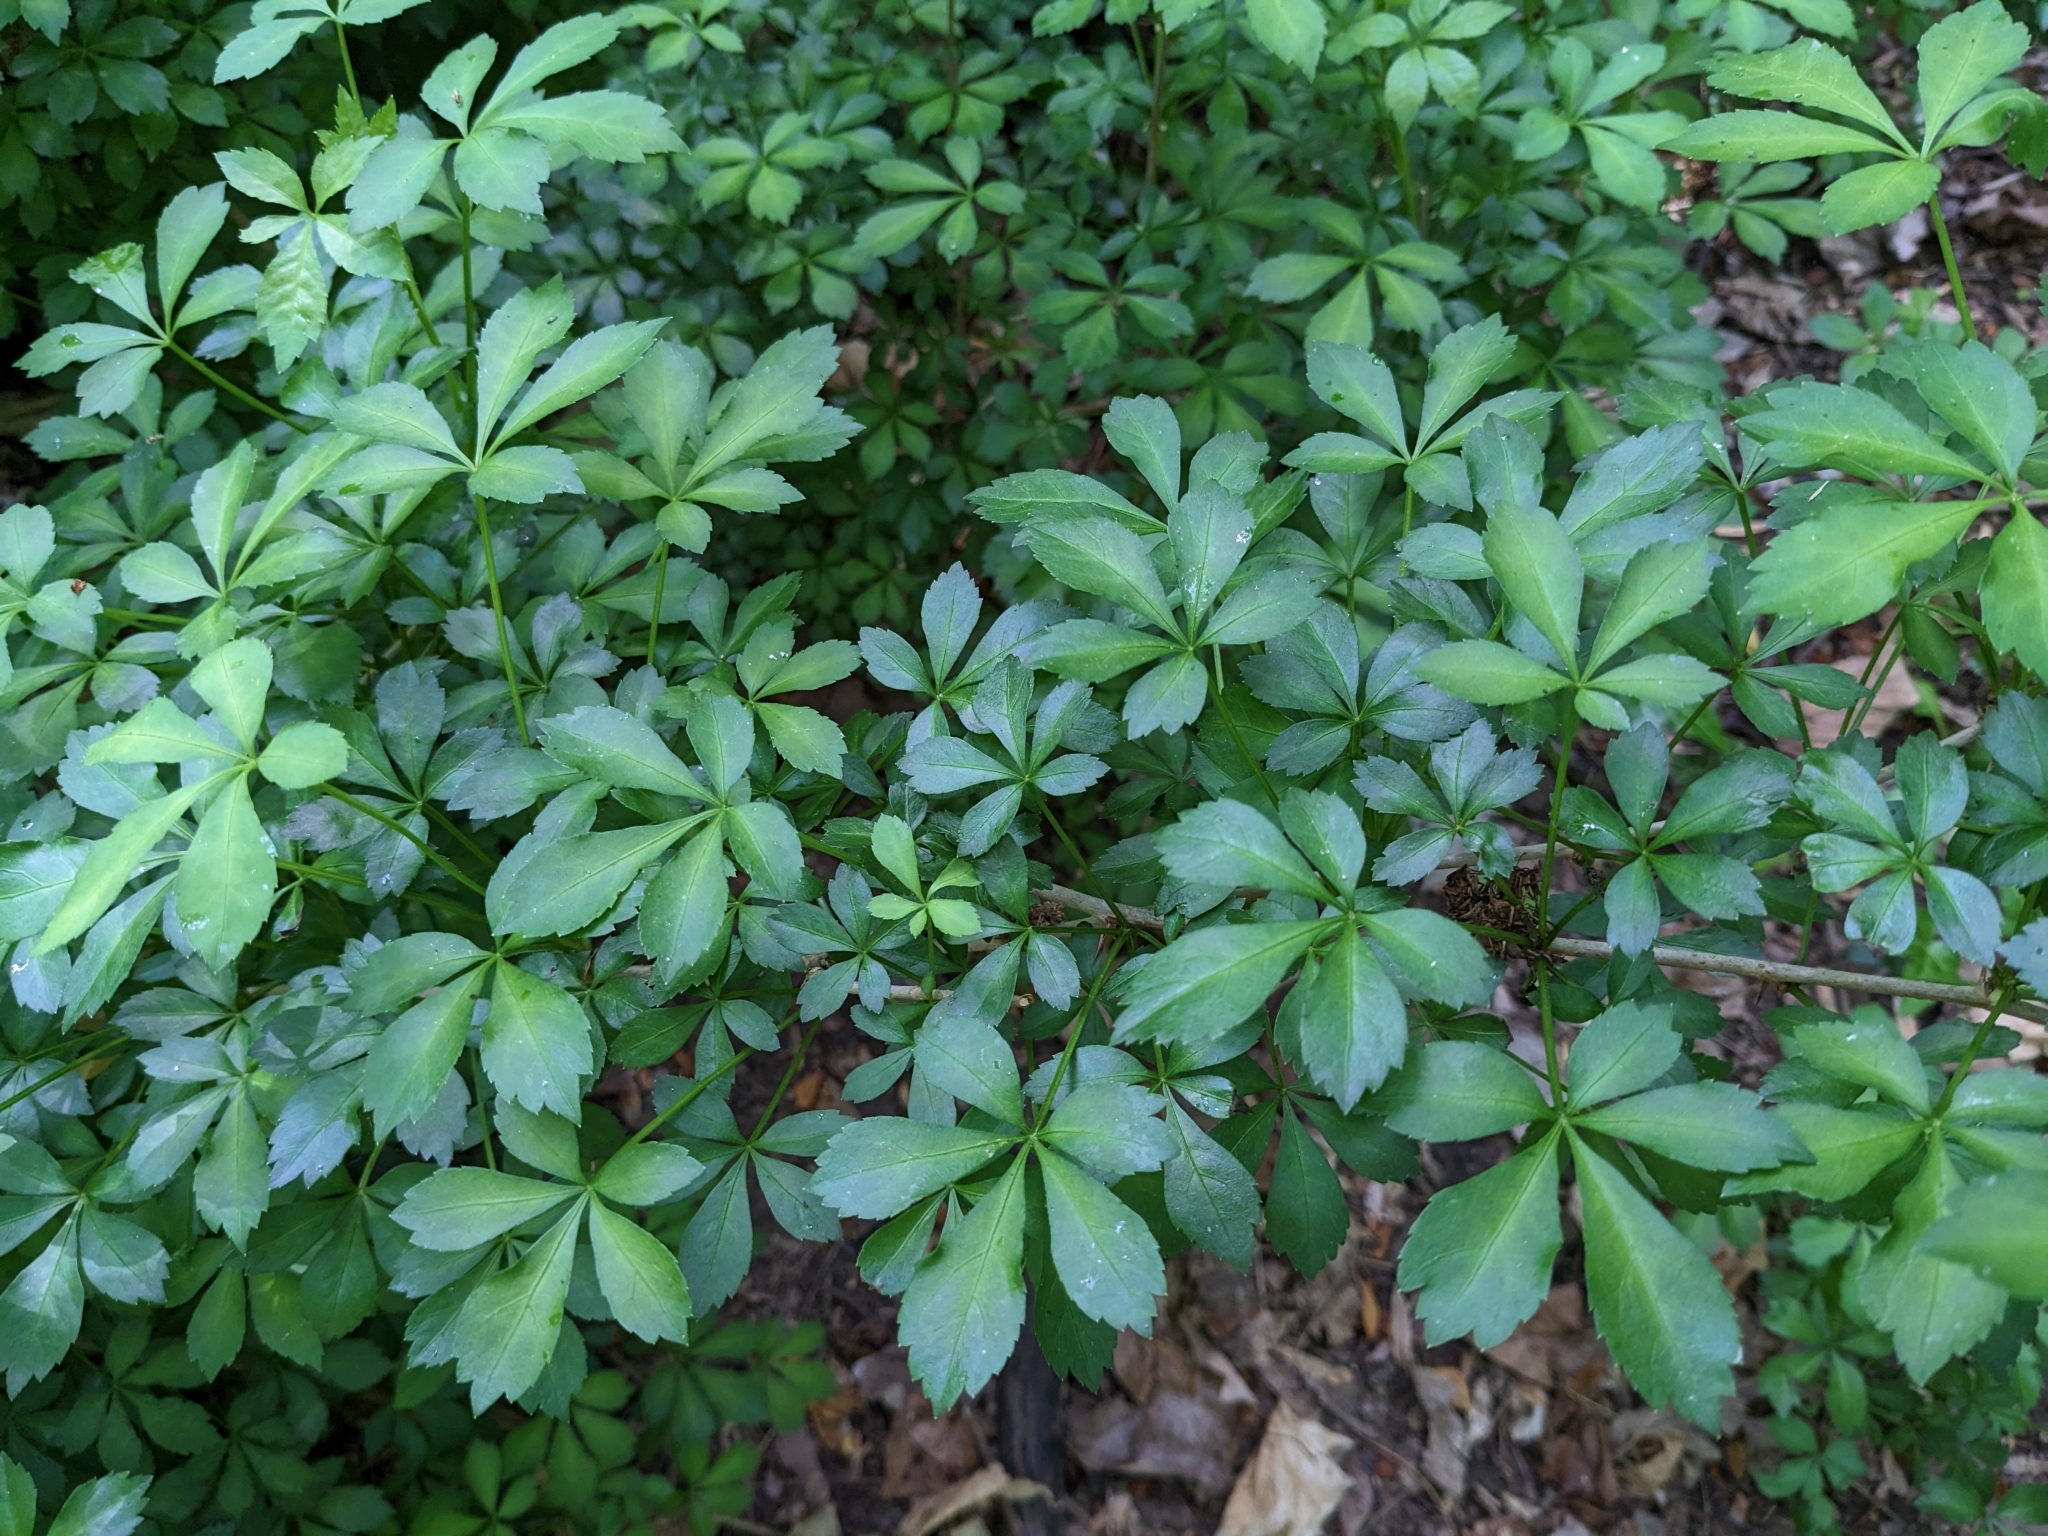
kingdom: Plantae
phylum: Tracheophyta
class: Magnoliopsida
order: Apiales
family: Araliaceae
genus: Eleutherococcus
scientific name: Eleutherococcus sieboldianus
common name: Ginseng
